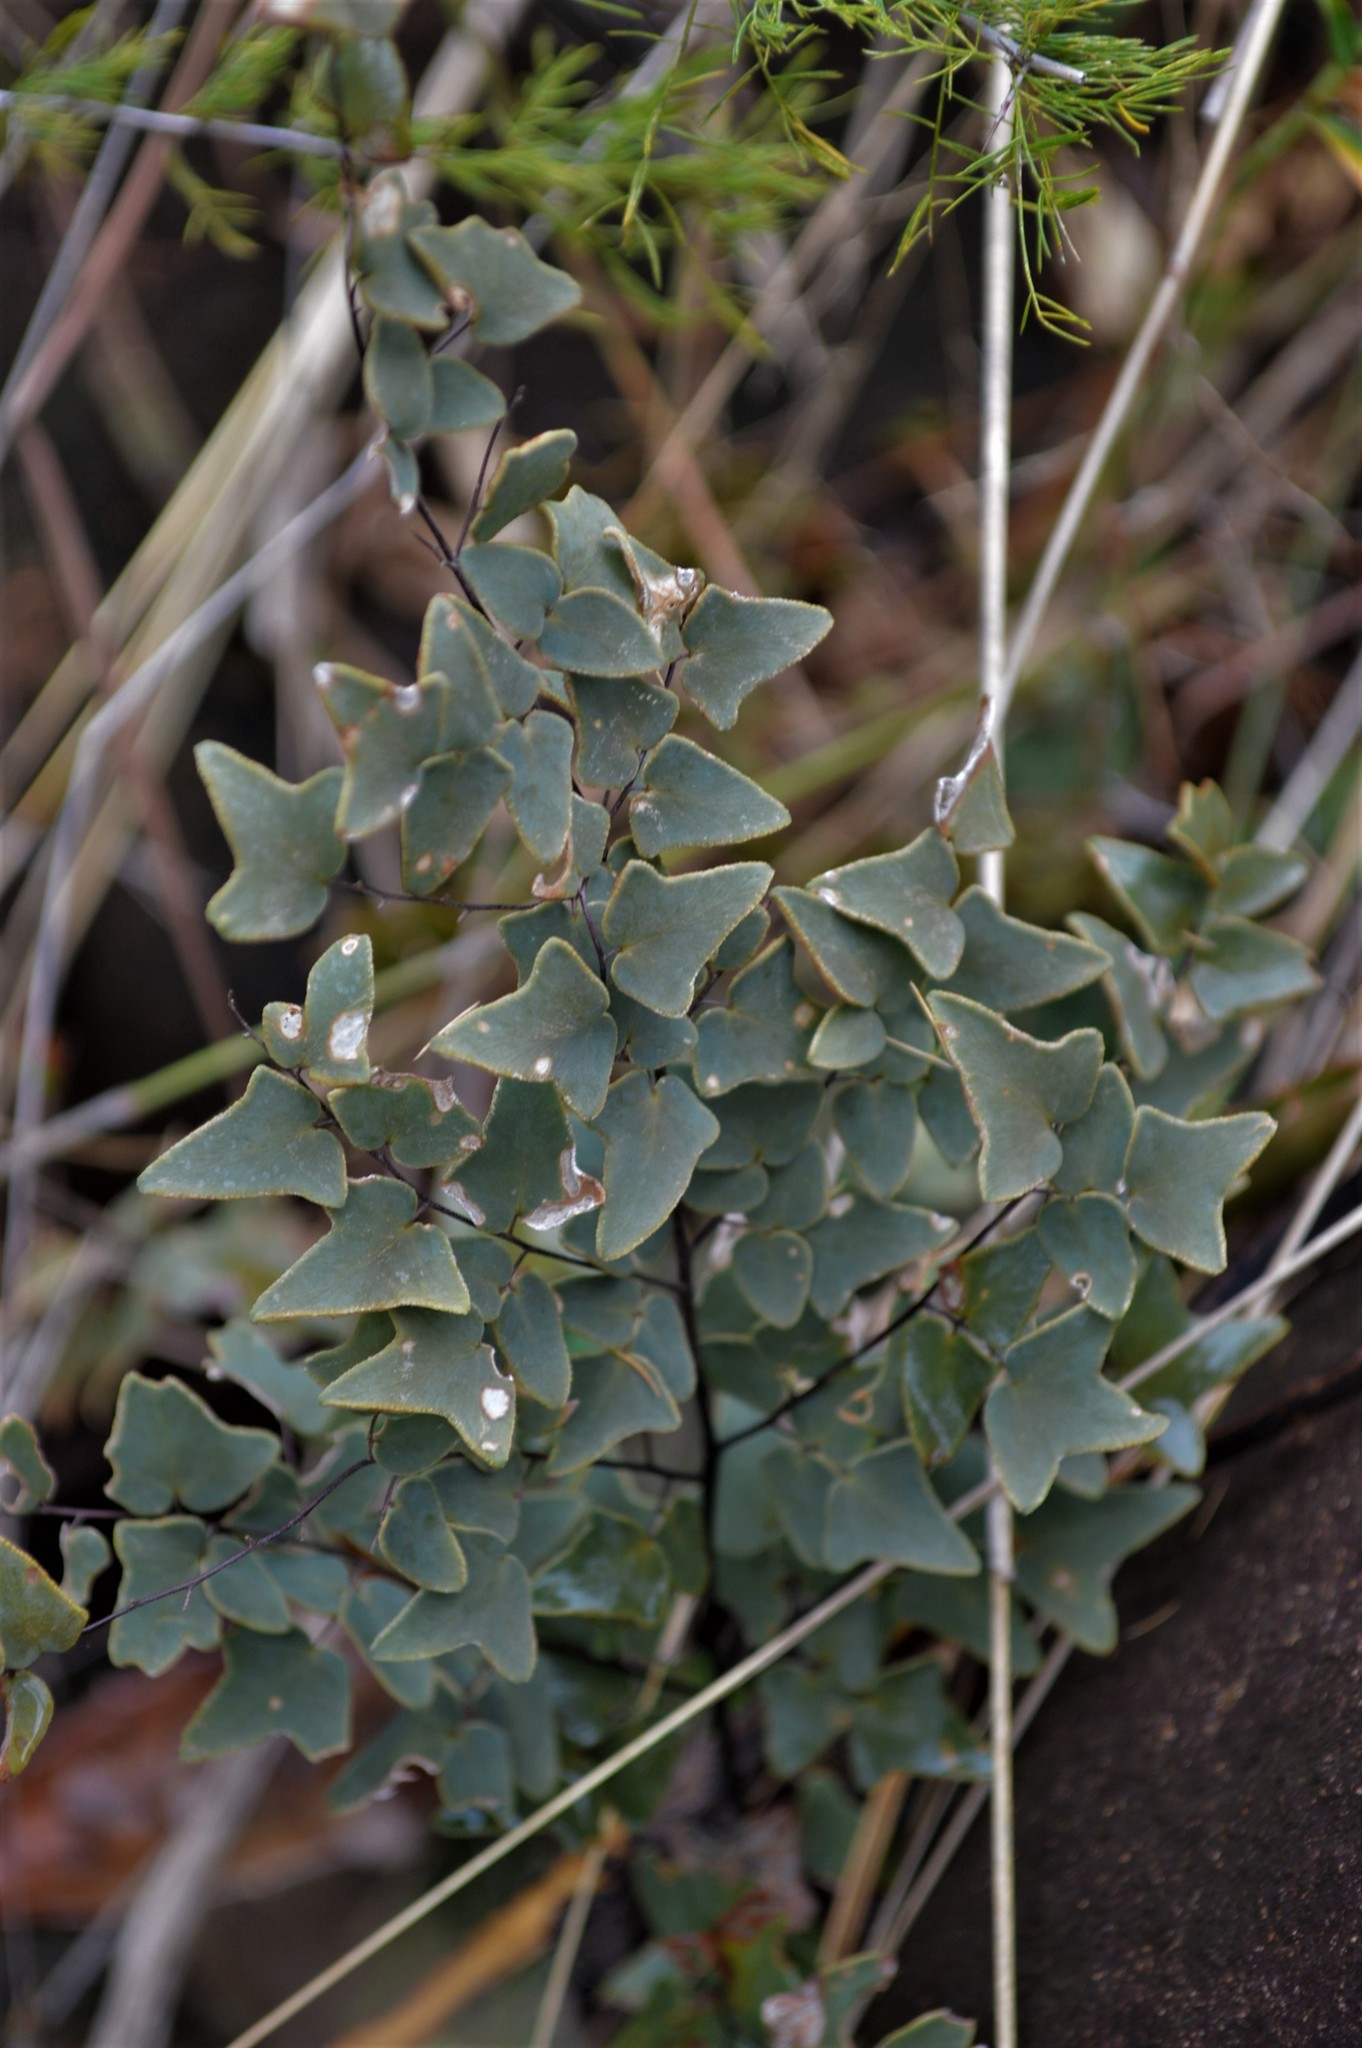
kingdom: Plantae
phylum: Tracheophyta
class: Polypodiopsida
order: Polypodiales
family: Pteridaceae
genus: Pellaea
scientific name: Pellaea calomelanos
